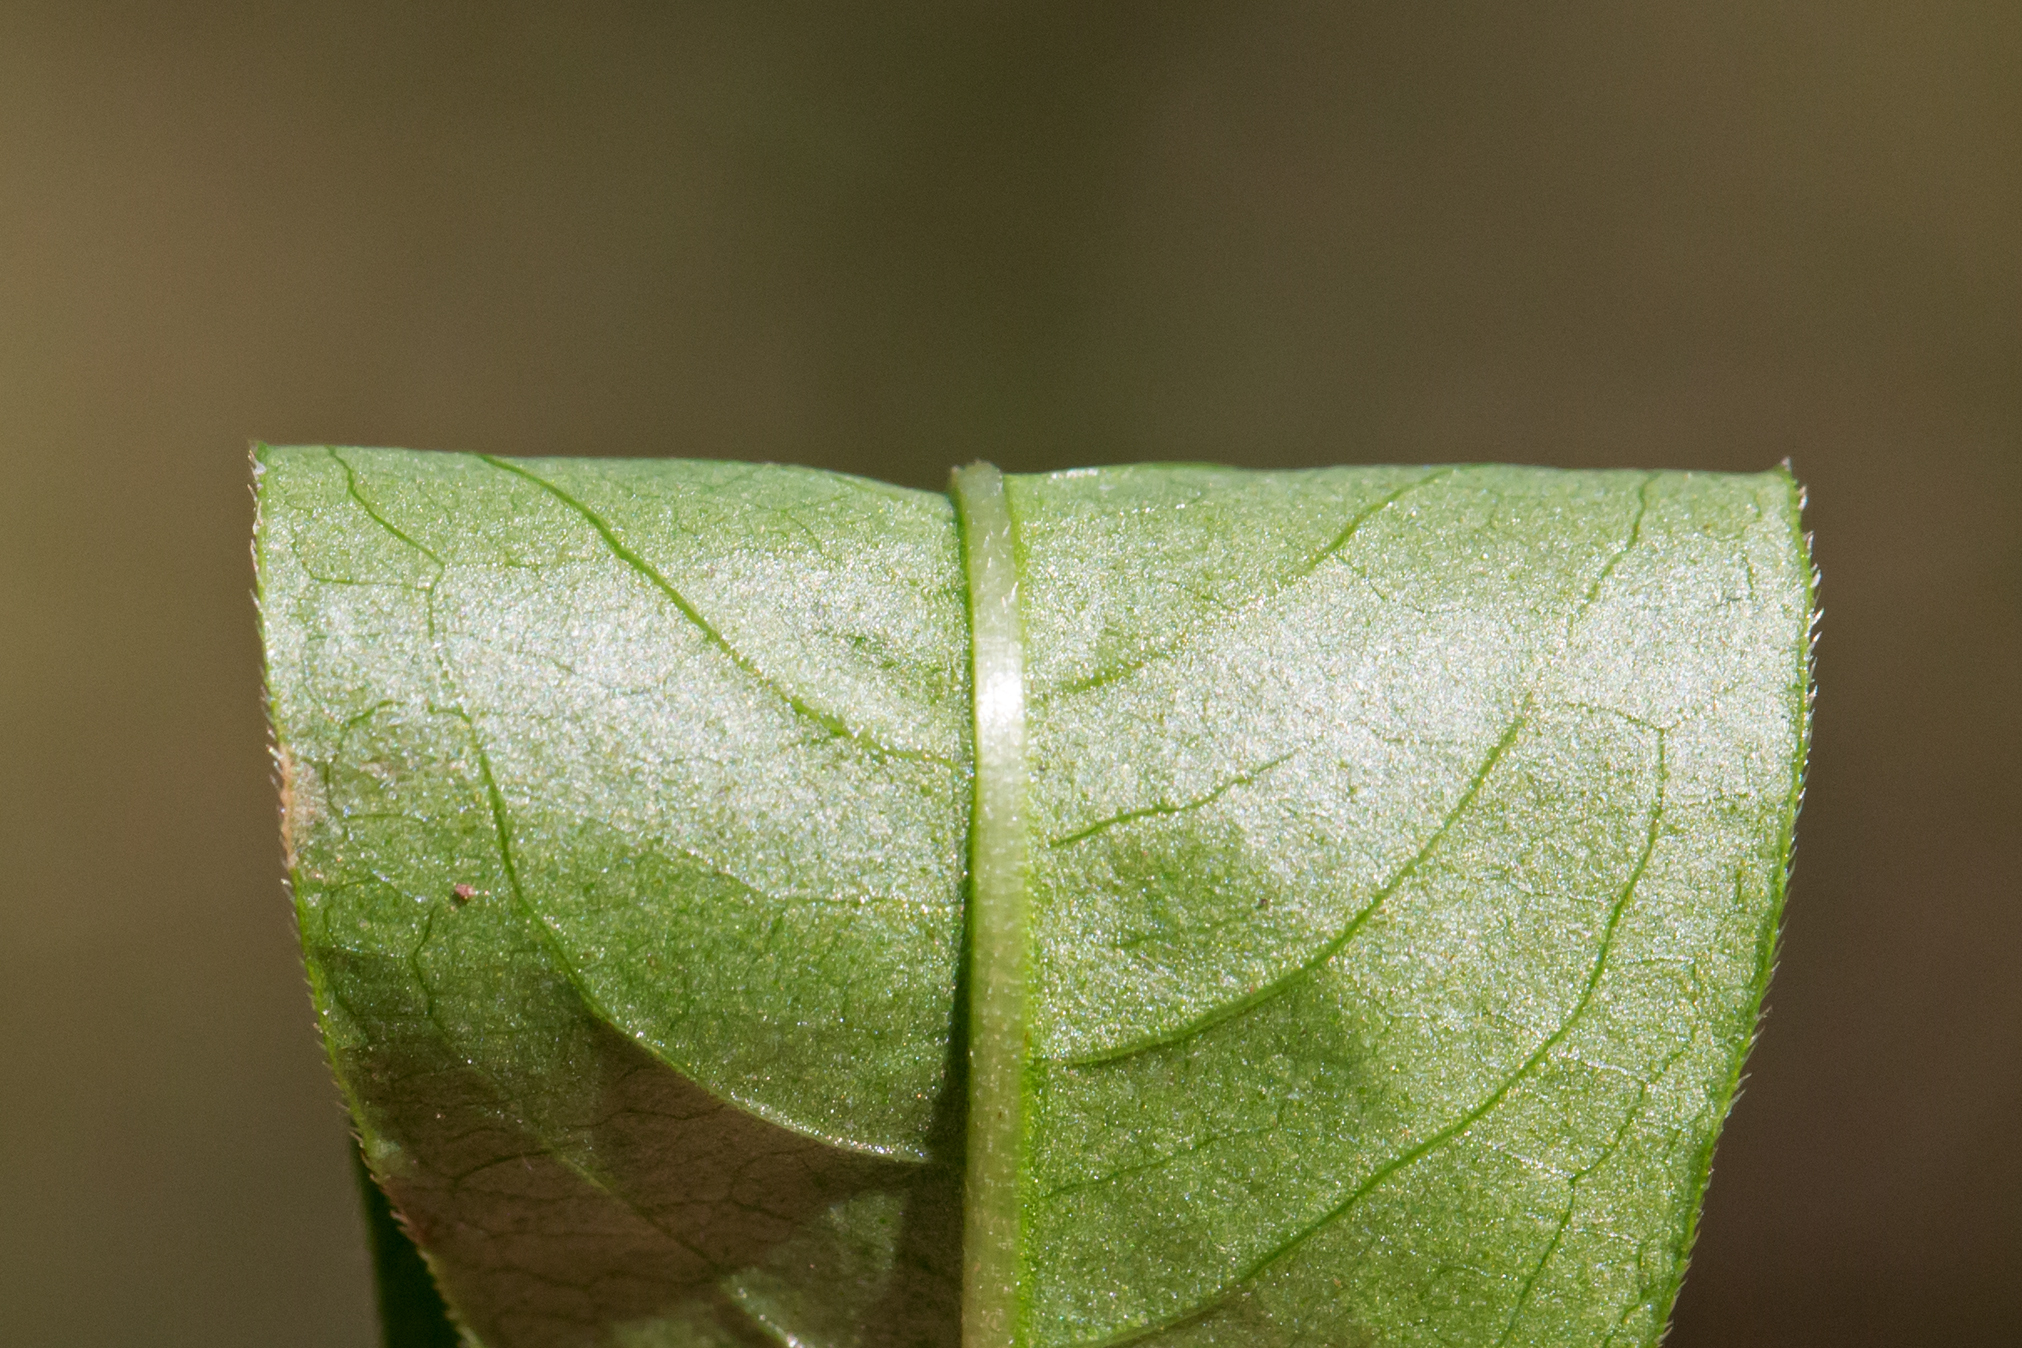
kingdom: Plantae
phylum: Tracheophyta
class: Magnoliopsida
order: Caryophyllales
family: Polygonaceae
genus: Persicaria
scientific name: Persicaria punctata
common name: Dotted smartweed
